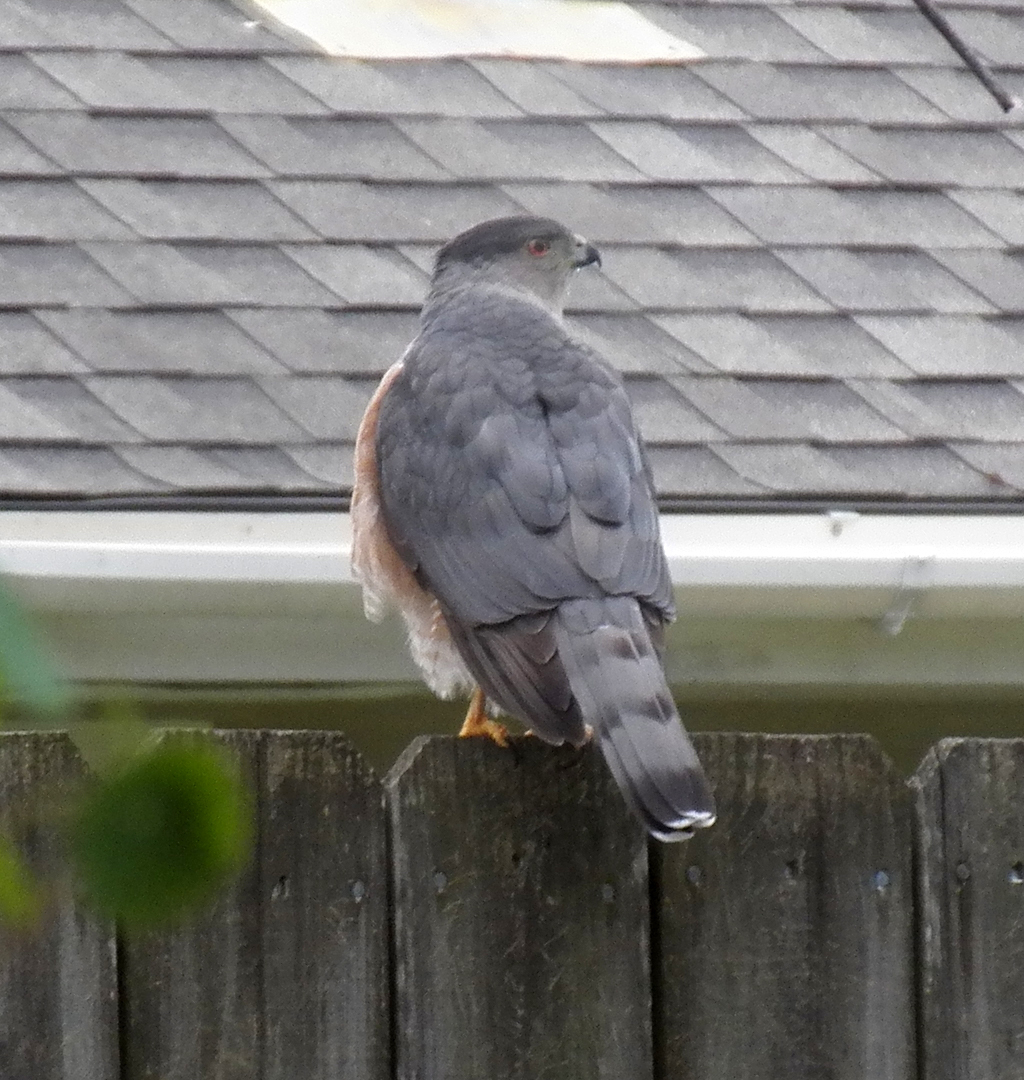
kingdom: Animalia
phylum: Chordata
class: Aves
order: Accipitriformes
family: Accipitridae
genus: Accipiter
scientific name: Accipiter cooperii
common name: Cooper's hawk
